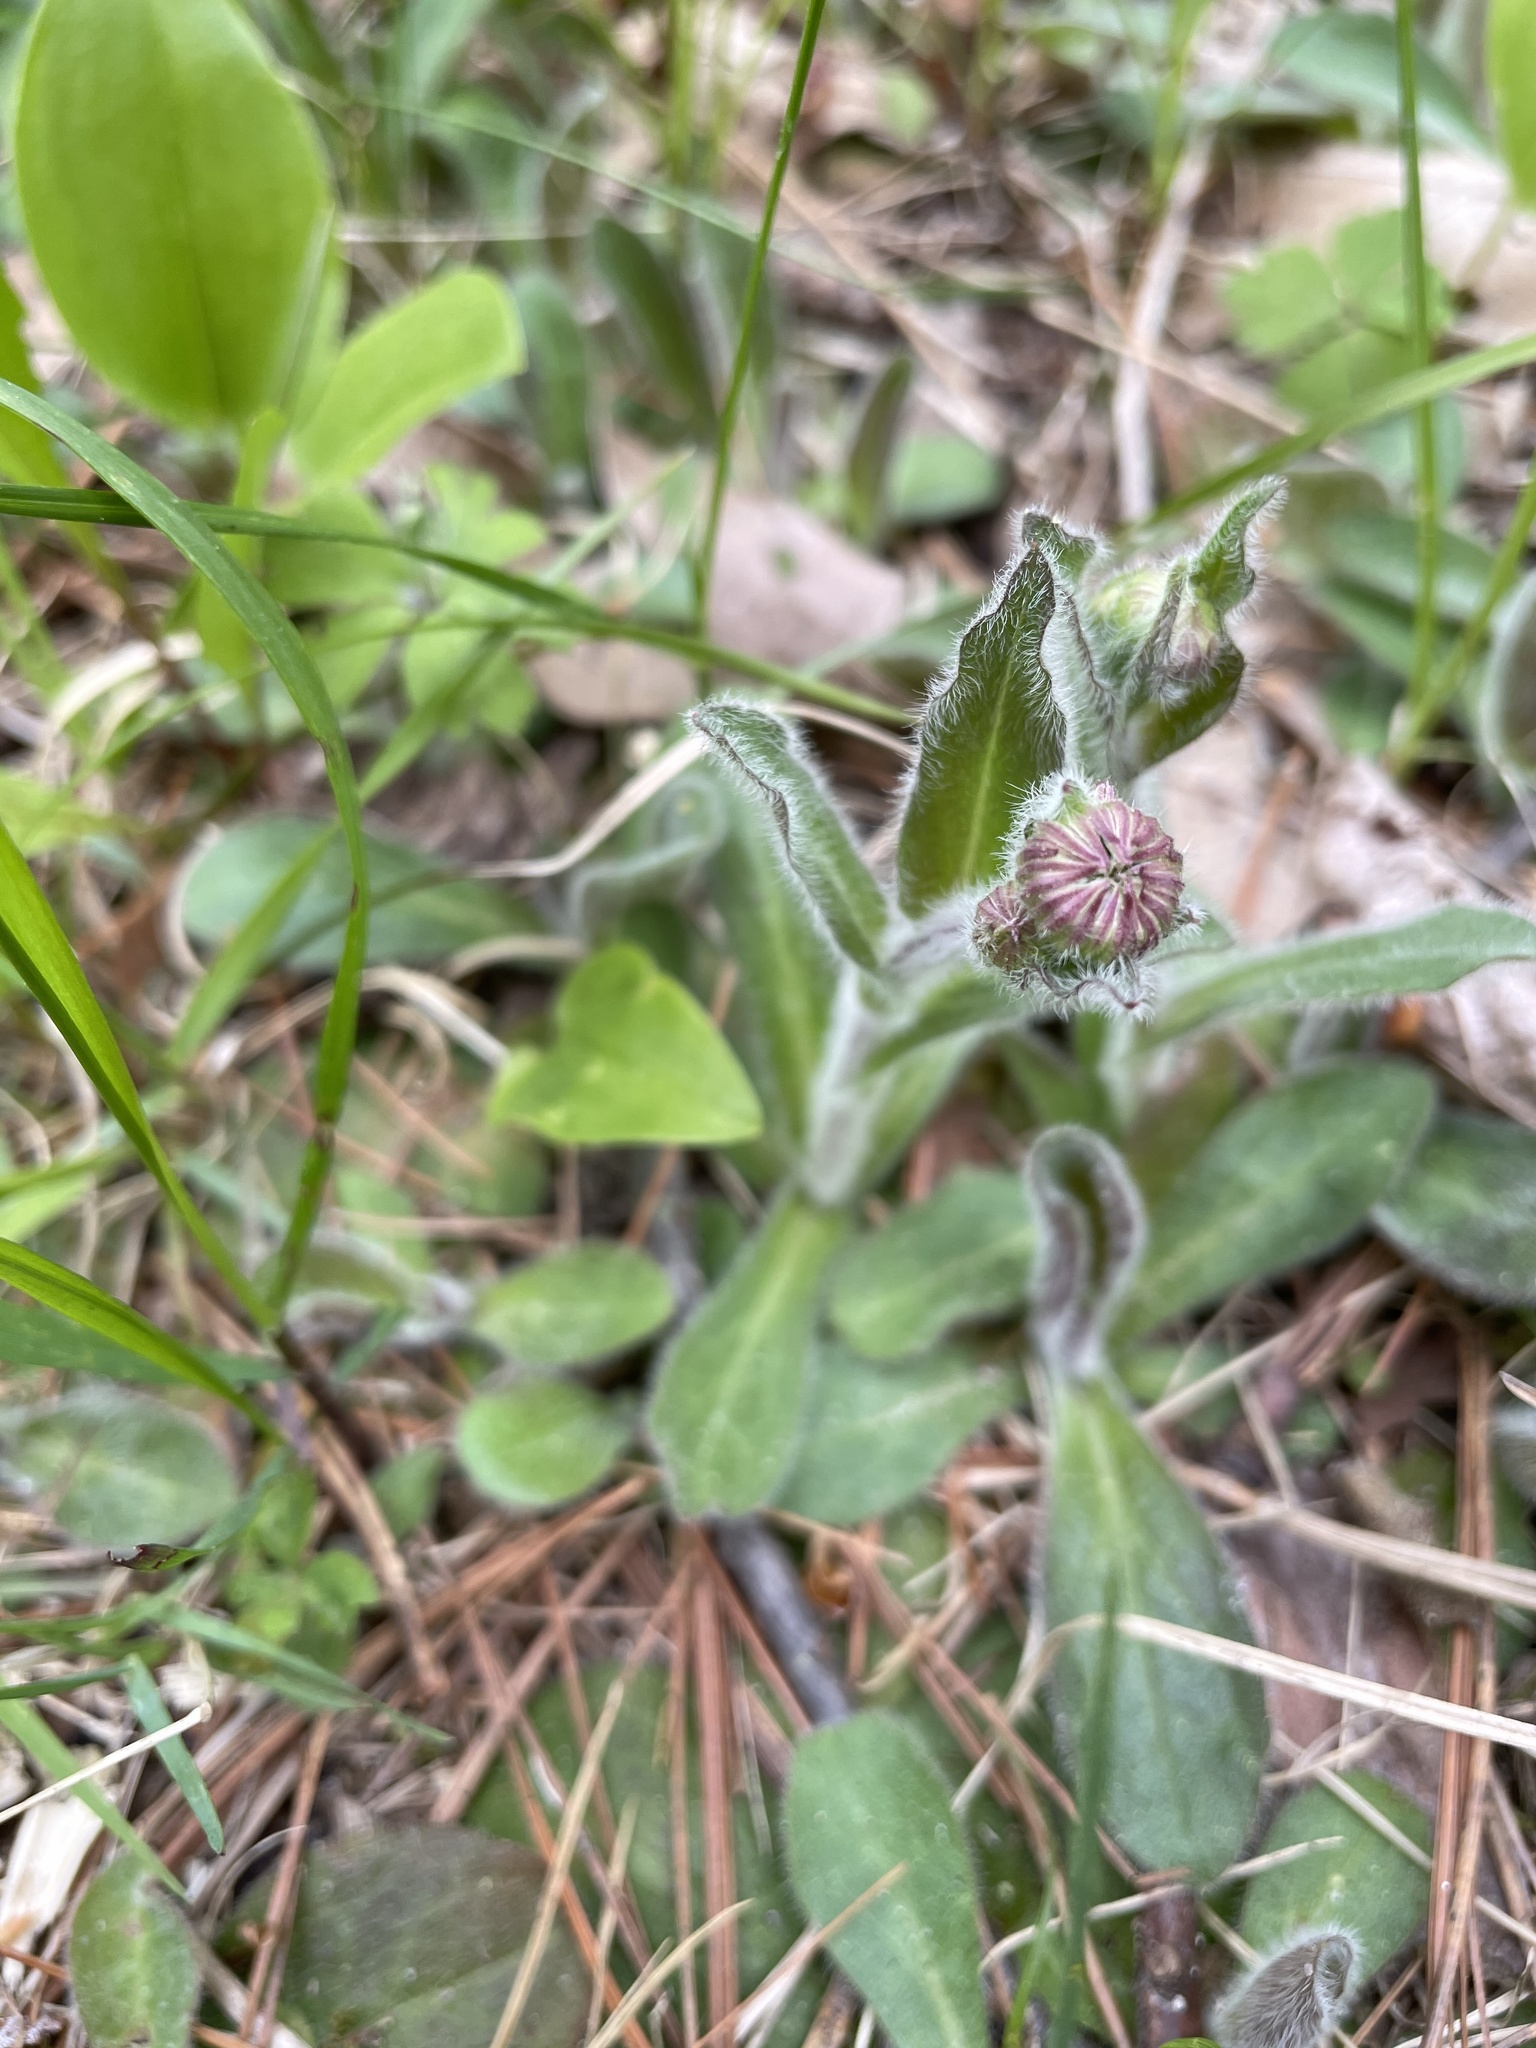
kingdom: Plantae
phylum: Tracheophyta
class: Magnoliopsida
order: Asterales
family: Asteraceae
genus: Erigeron
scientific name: Erigeron pulchellus
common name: Hairy fleabane
